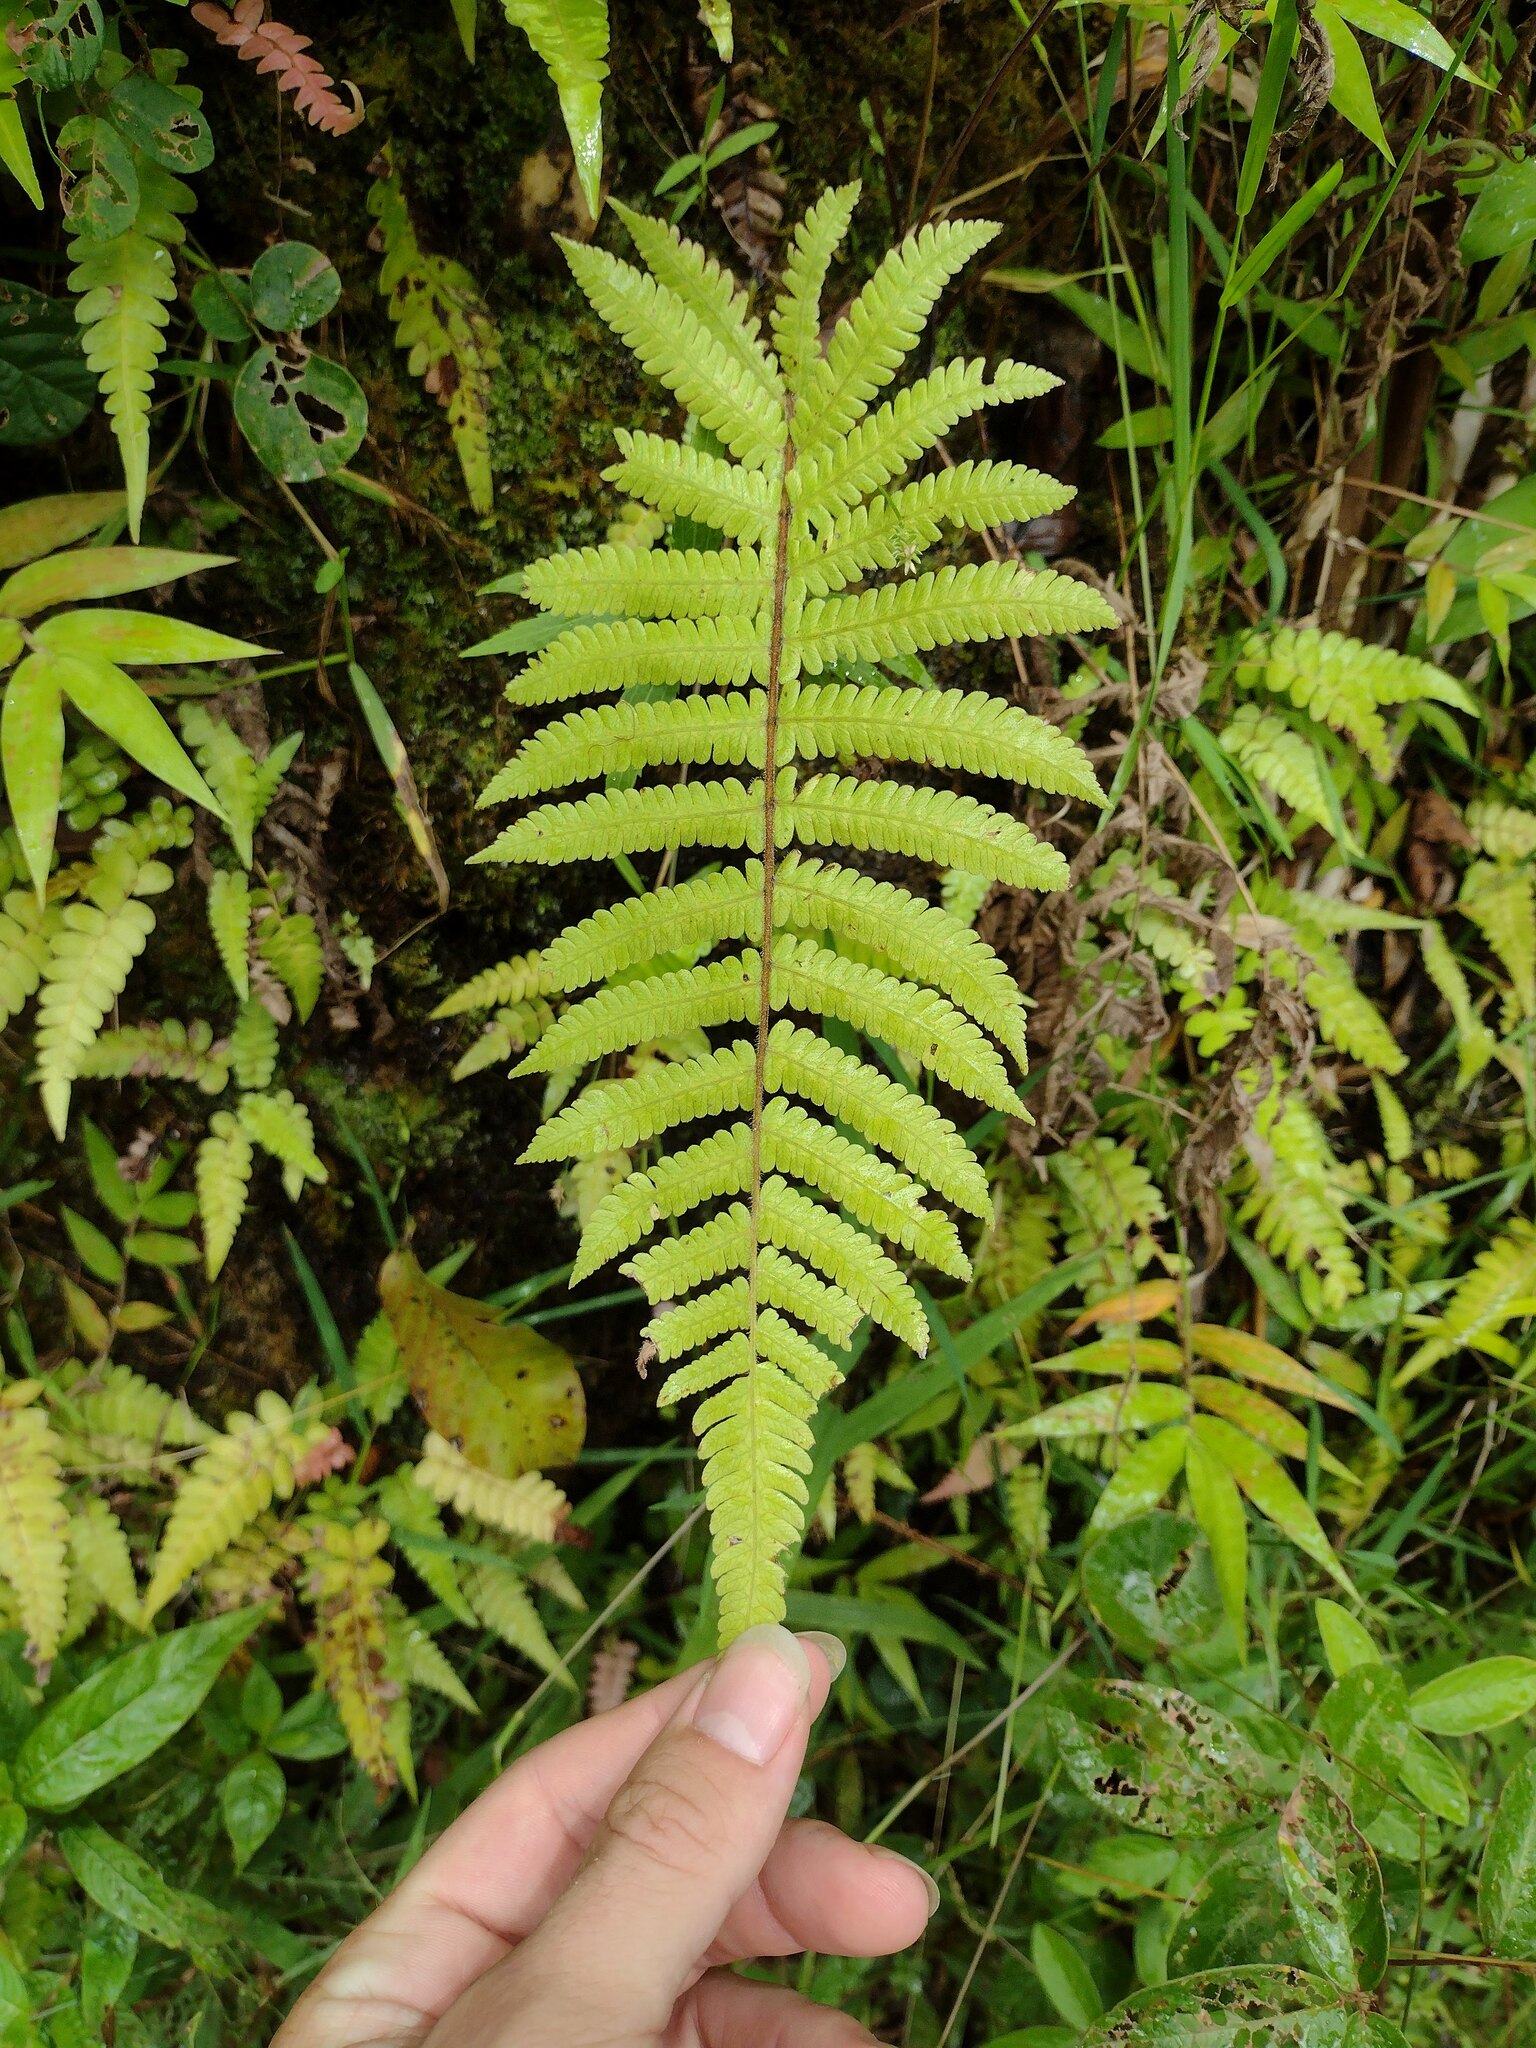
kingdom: Plantae
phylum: Tracheophyta
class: Polypodiopsida
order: Polypodiales
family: Thelypteridaceae
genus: Christella
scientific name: Christella parasitica
